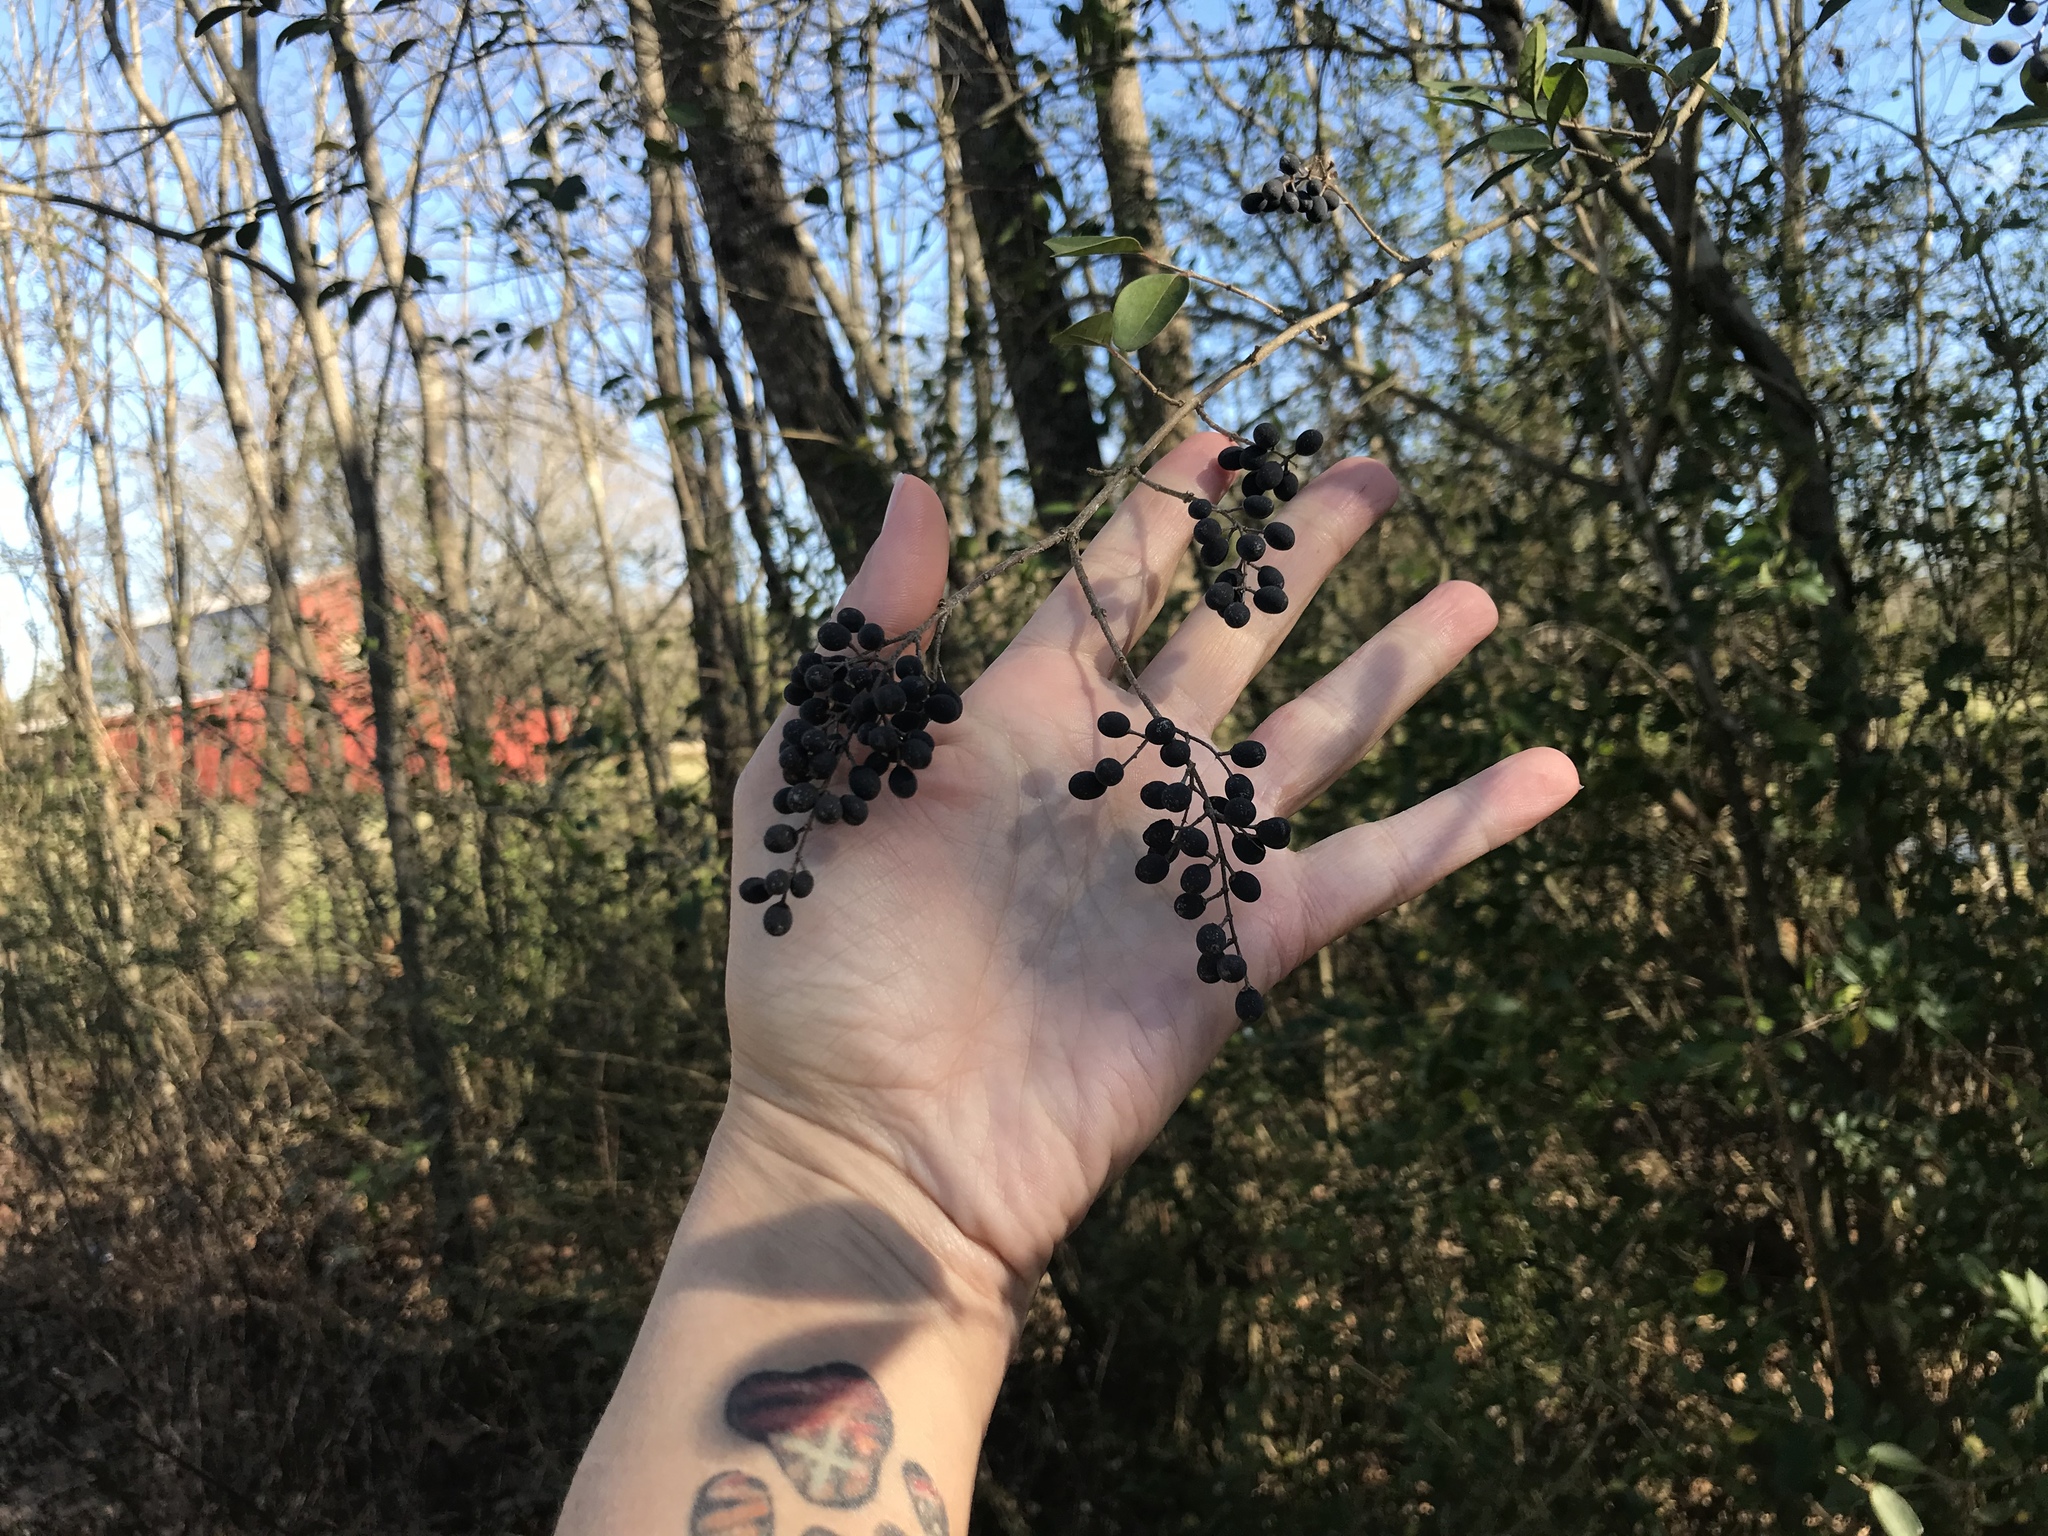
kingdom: Plantae
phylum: Tracheophyta
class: Magnoliopsida
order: Lamiales
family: Oleaceae
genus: Ligustrum
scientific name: Ligustrum sinense
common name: Chinese privet
